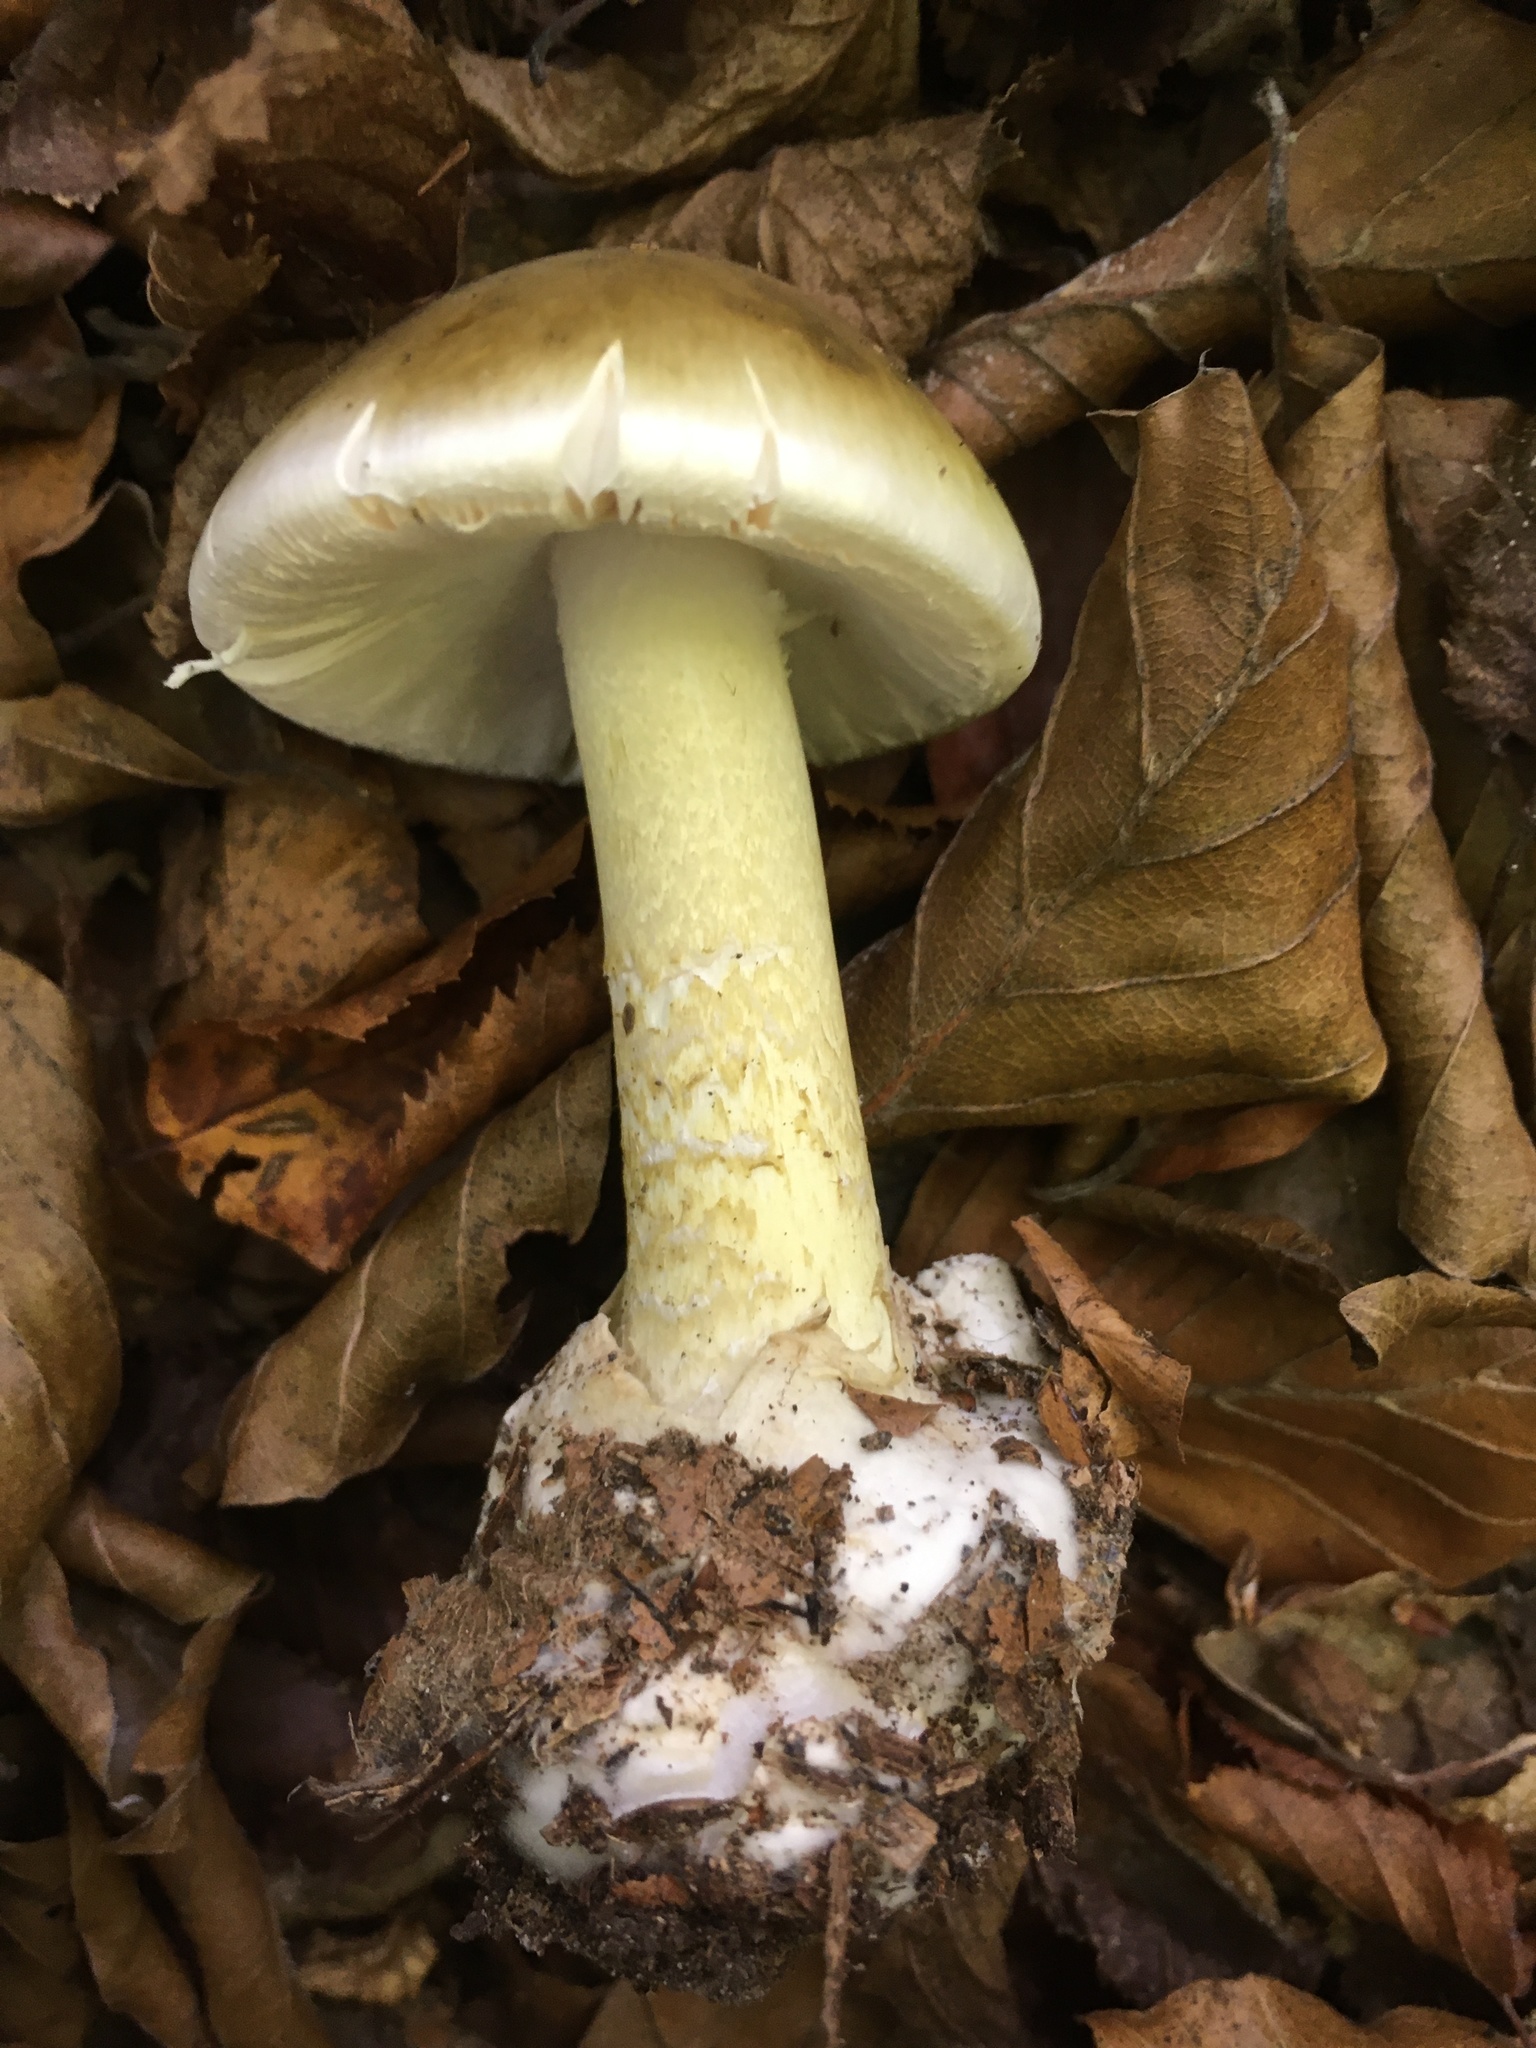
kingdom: Fungi
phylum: Basidiomycota
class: Agaricomycetes
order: Agaricales
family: Amanitaceae
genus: Amanita
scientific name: Amanita phalloides
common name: Death cap
